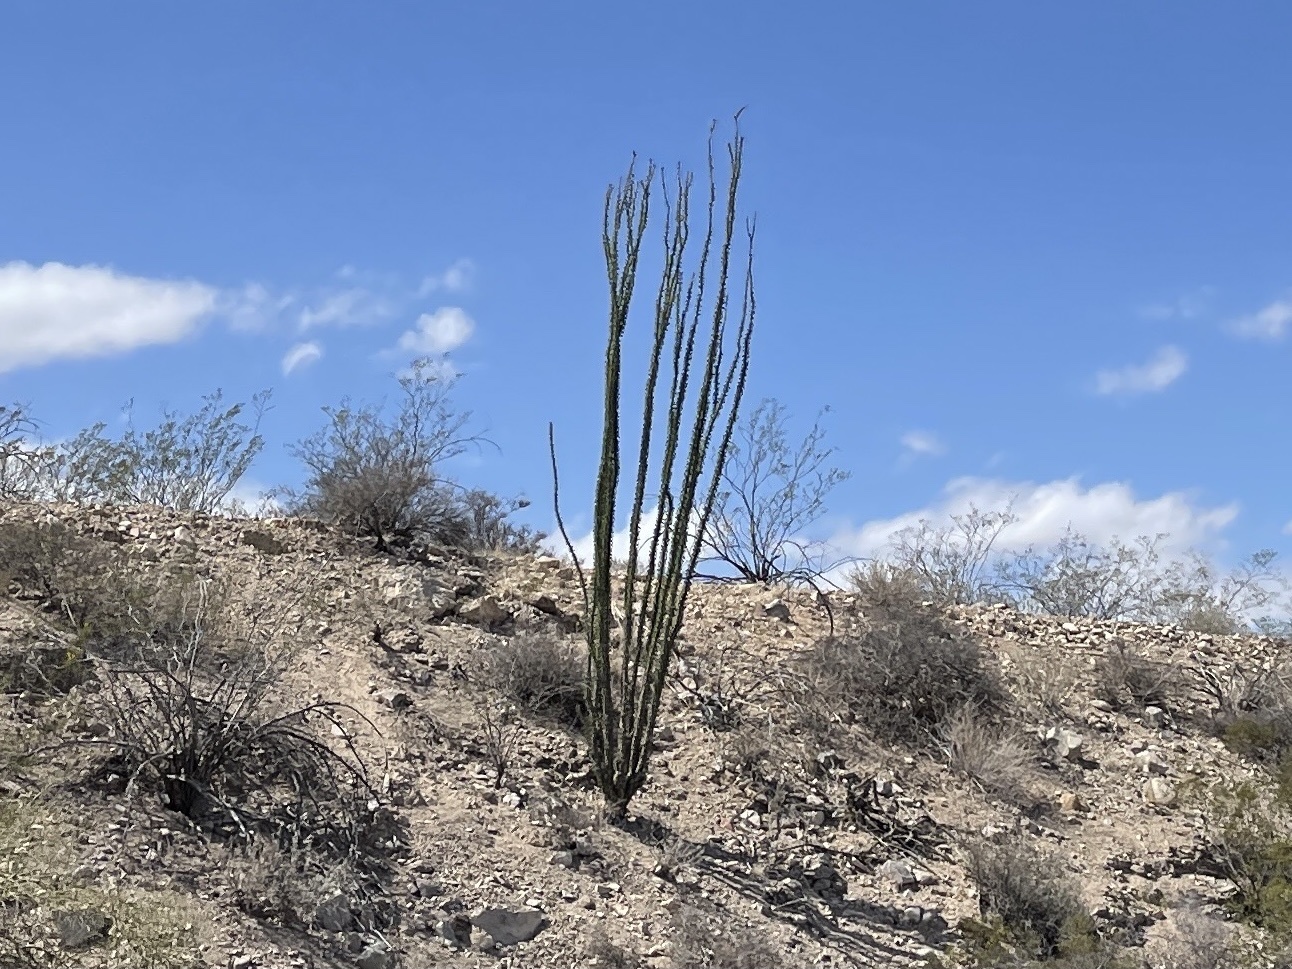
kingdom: Plantae
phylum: Tracheophyta
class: Magnoliopsida
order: Ericales
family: Fouquieriaceae
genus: Fouquieria
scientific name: Fouquieria splendens
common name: Vine-cactus
